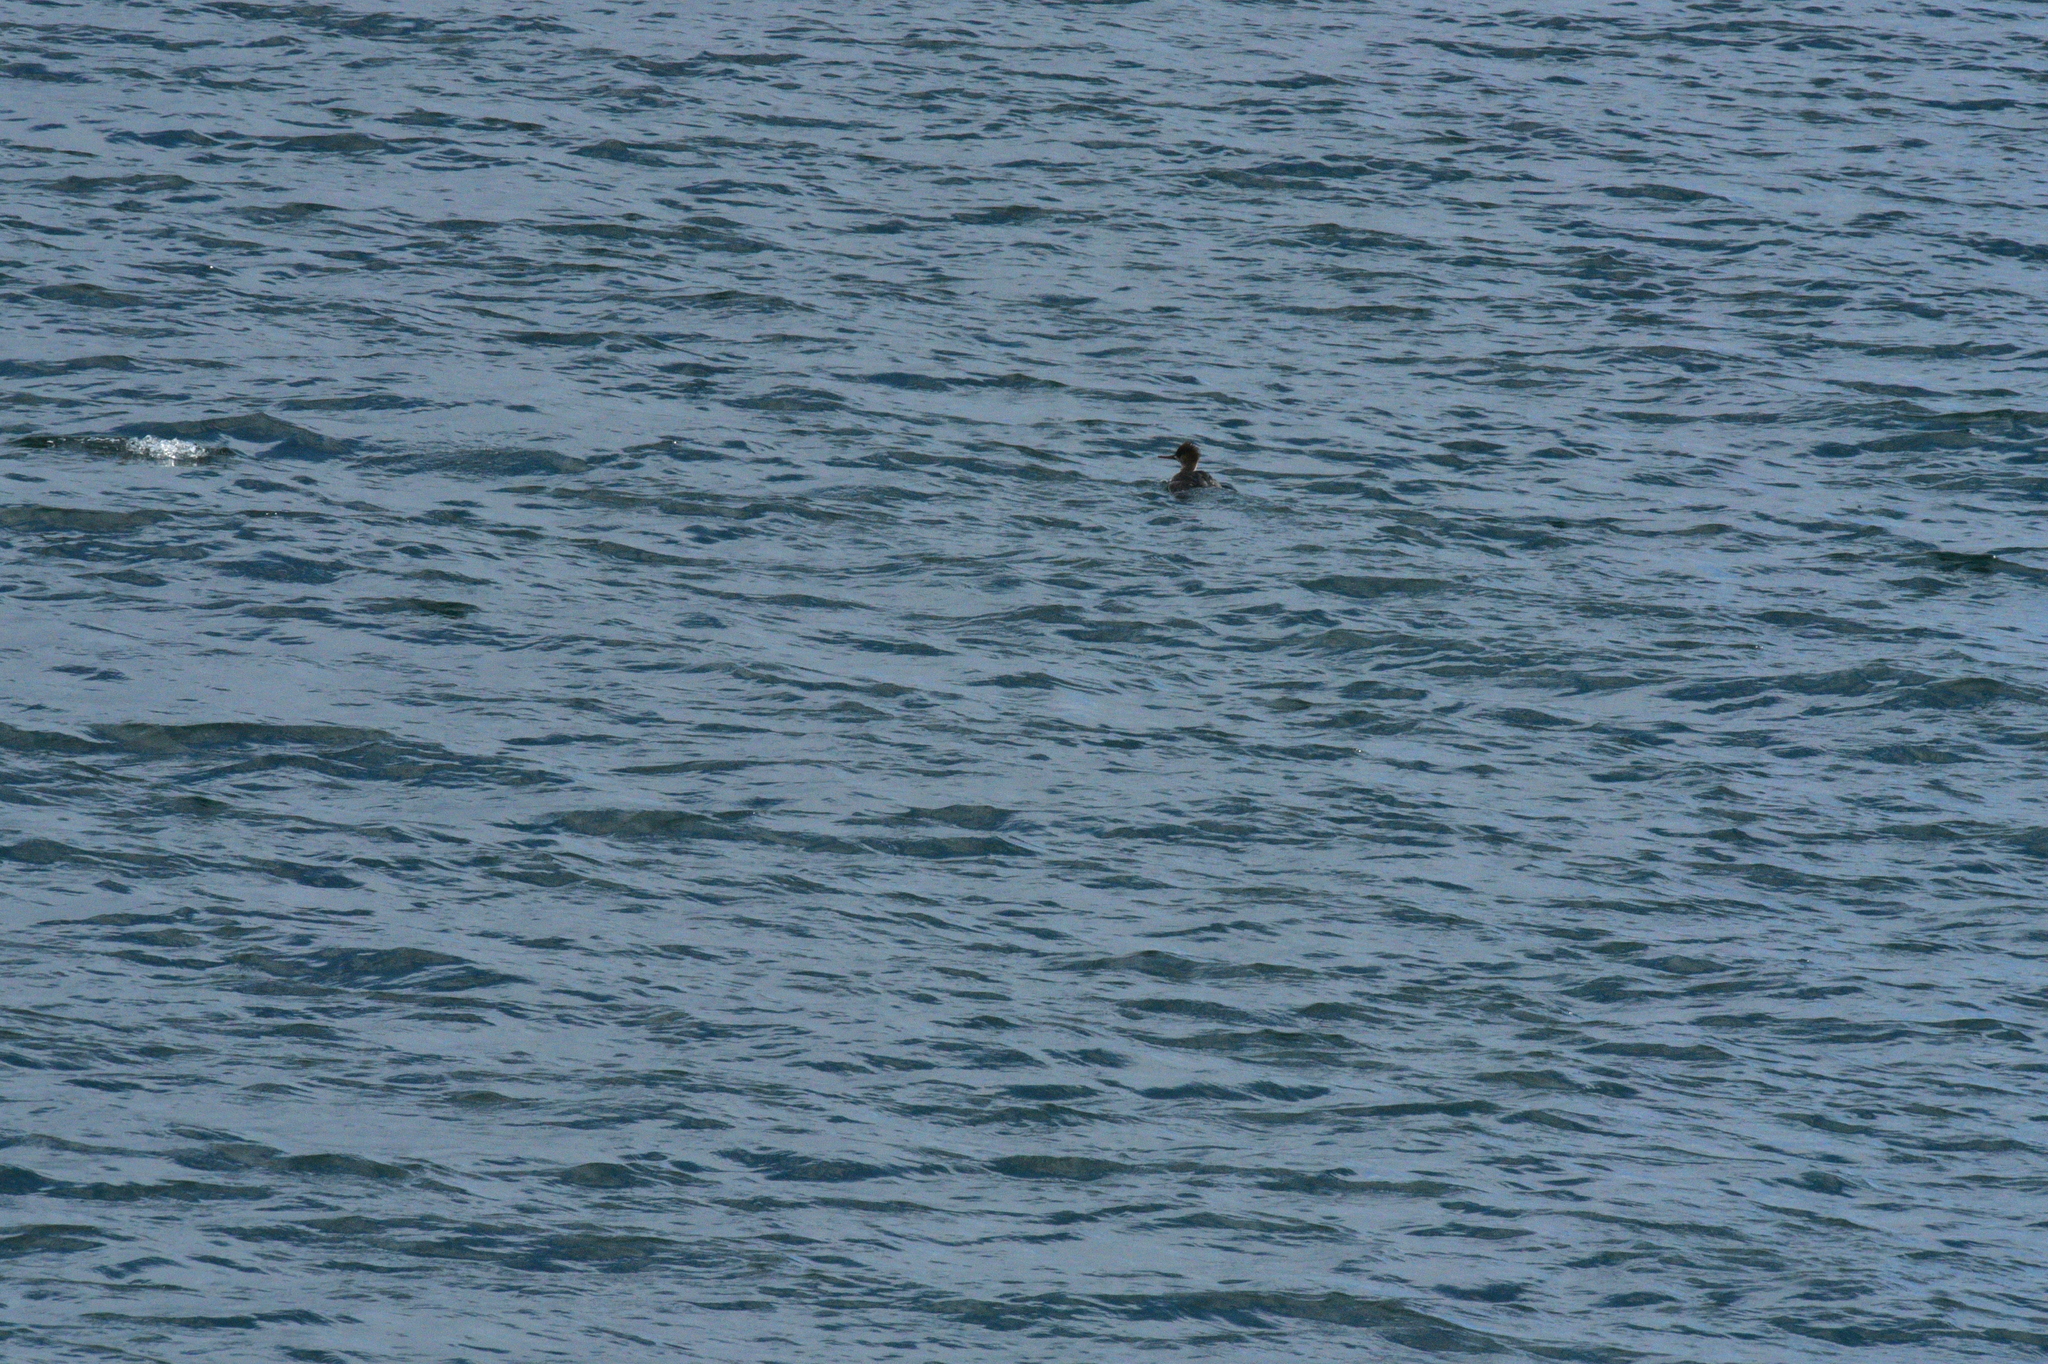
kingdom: Animalia
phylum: Chordata
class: Aves
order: Anseriformes
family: Anatidae
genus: Mergus
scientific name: Mergus serrator
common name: Red-breasted merganser
